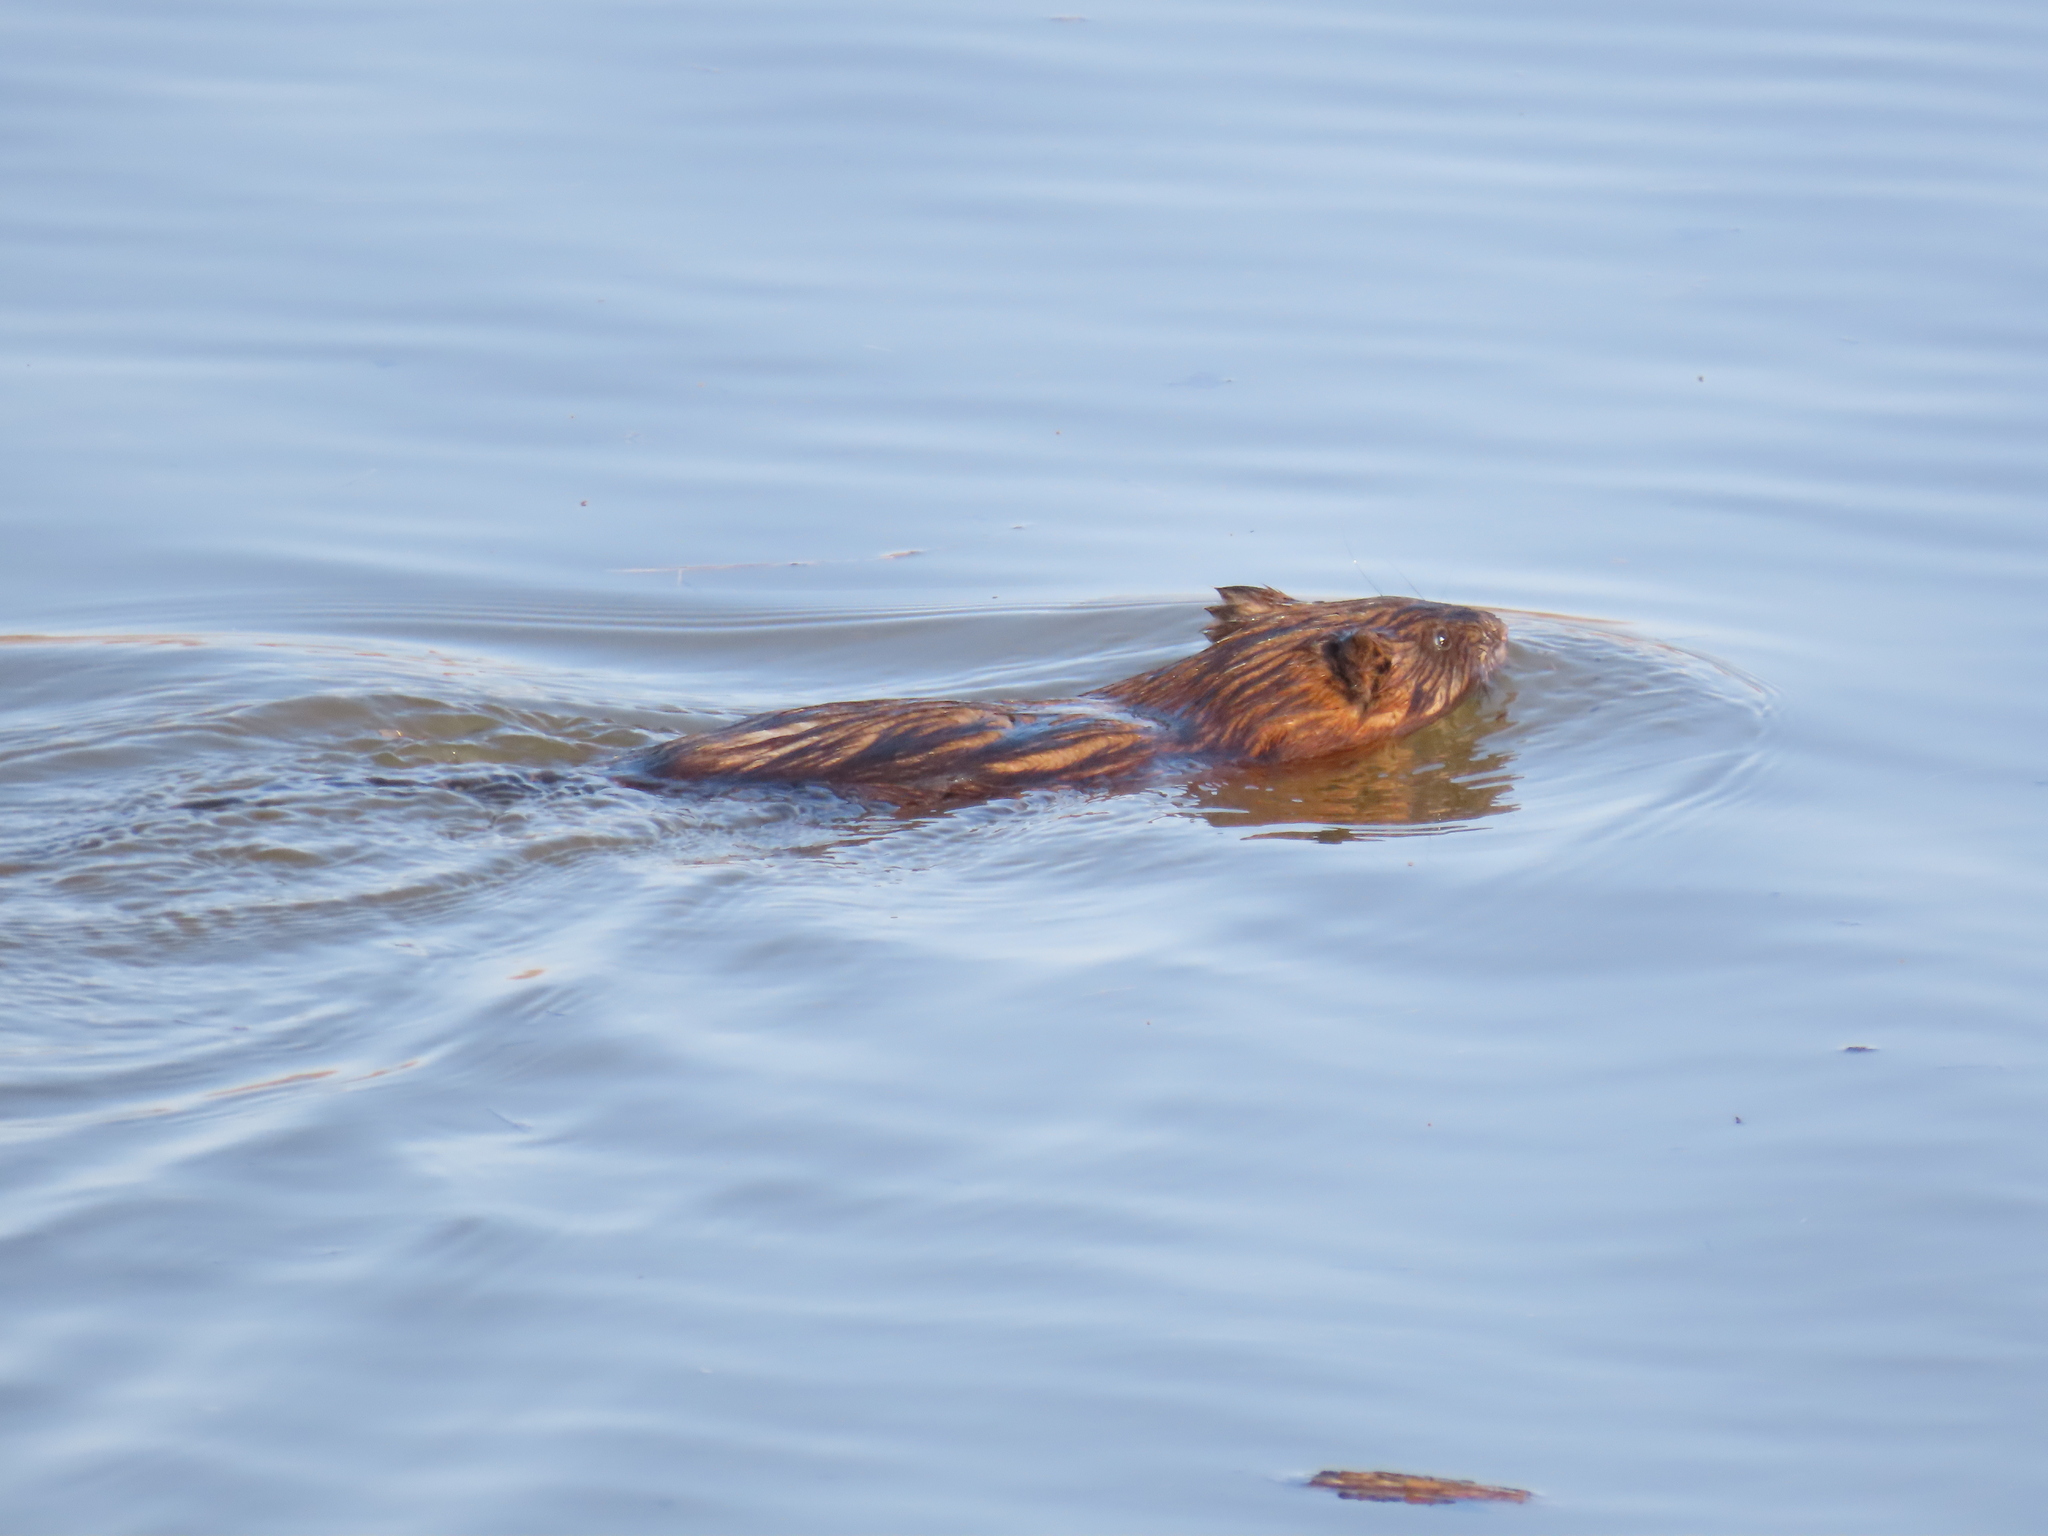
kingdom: Animalia
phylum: Chordata
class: Mammalia
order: Rodentia
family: Cricetidae
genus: Ondatra
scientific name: Ondatra zibethicus
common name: Muskrat
